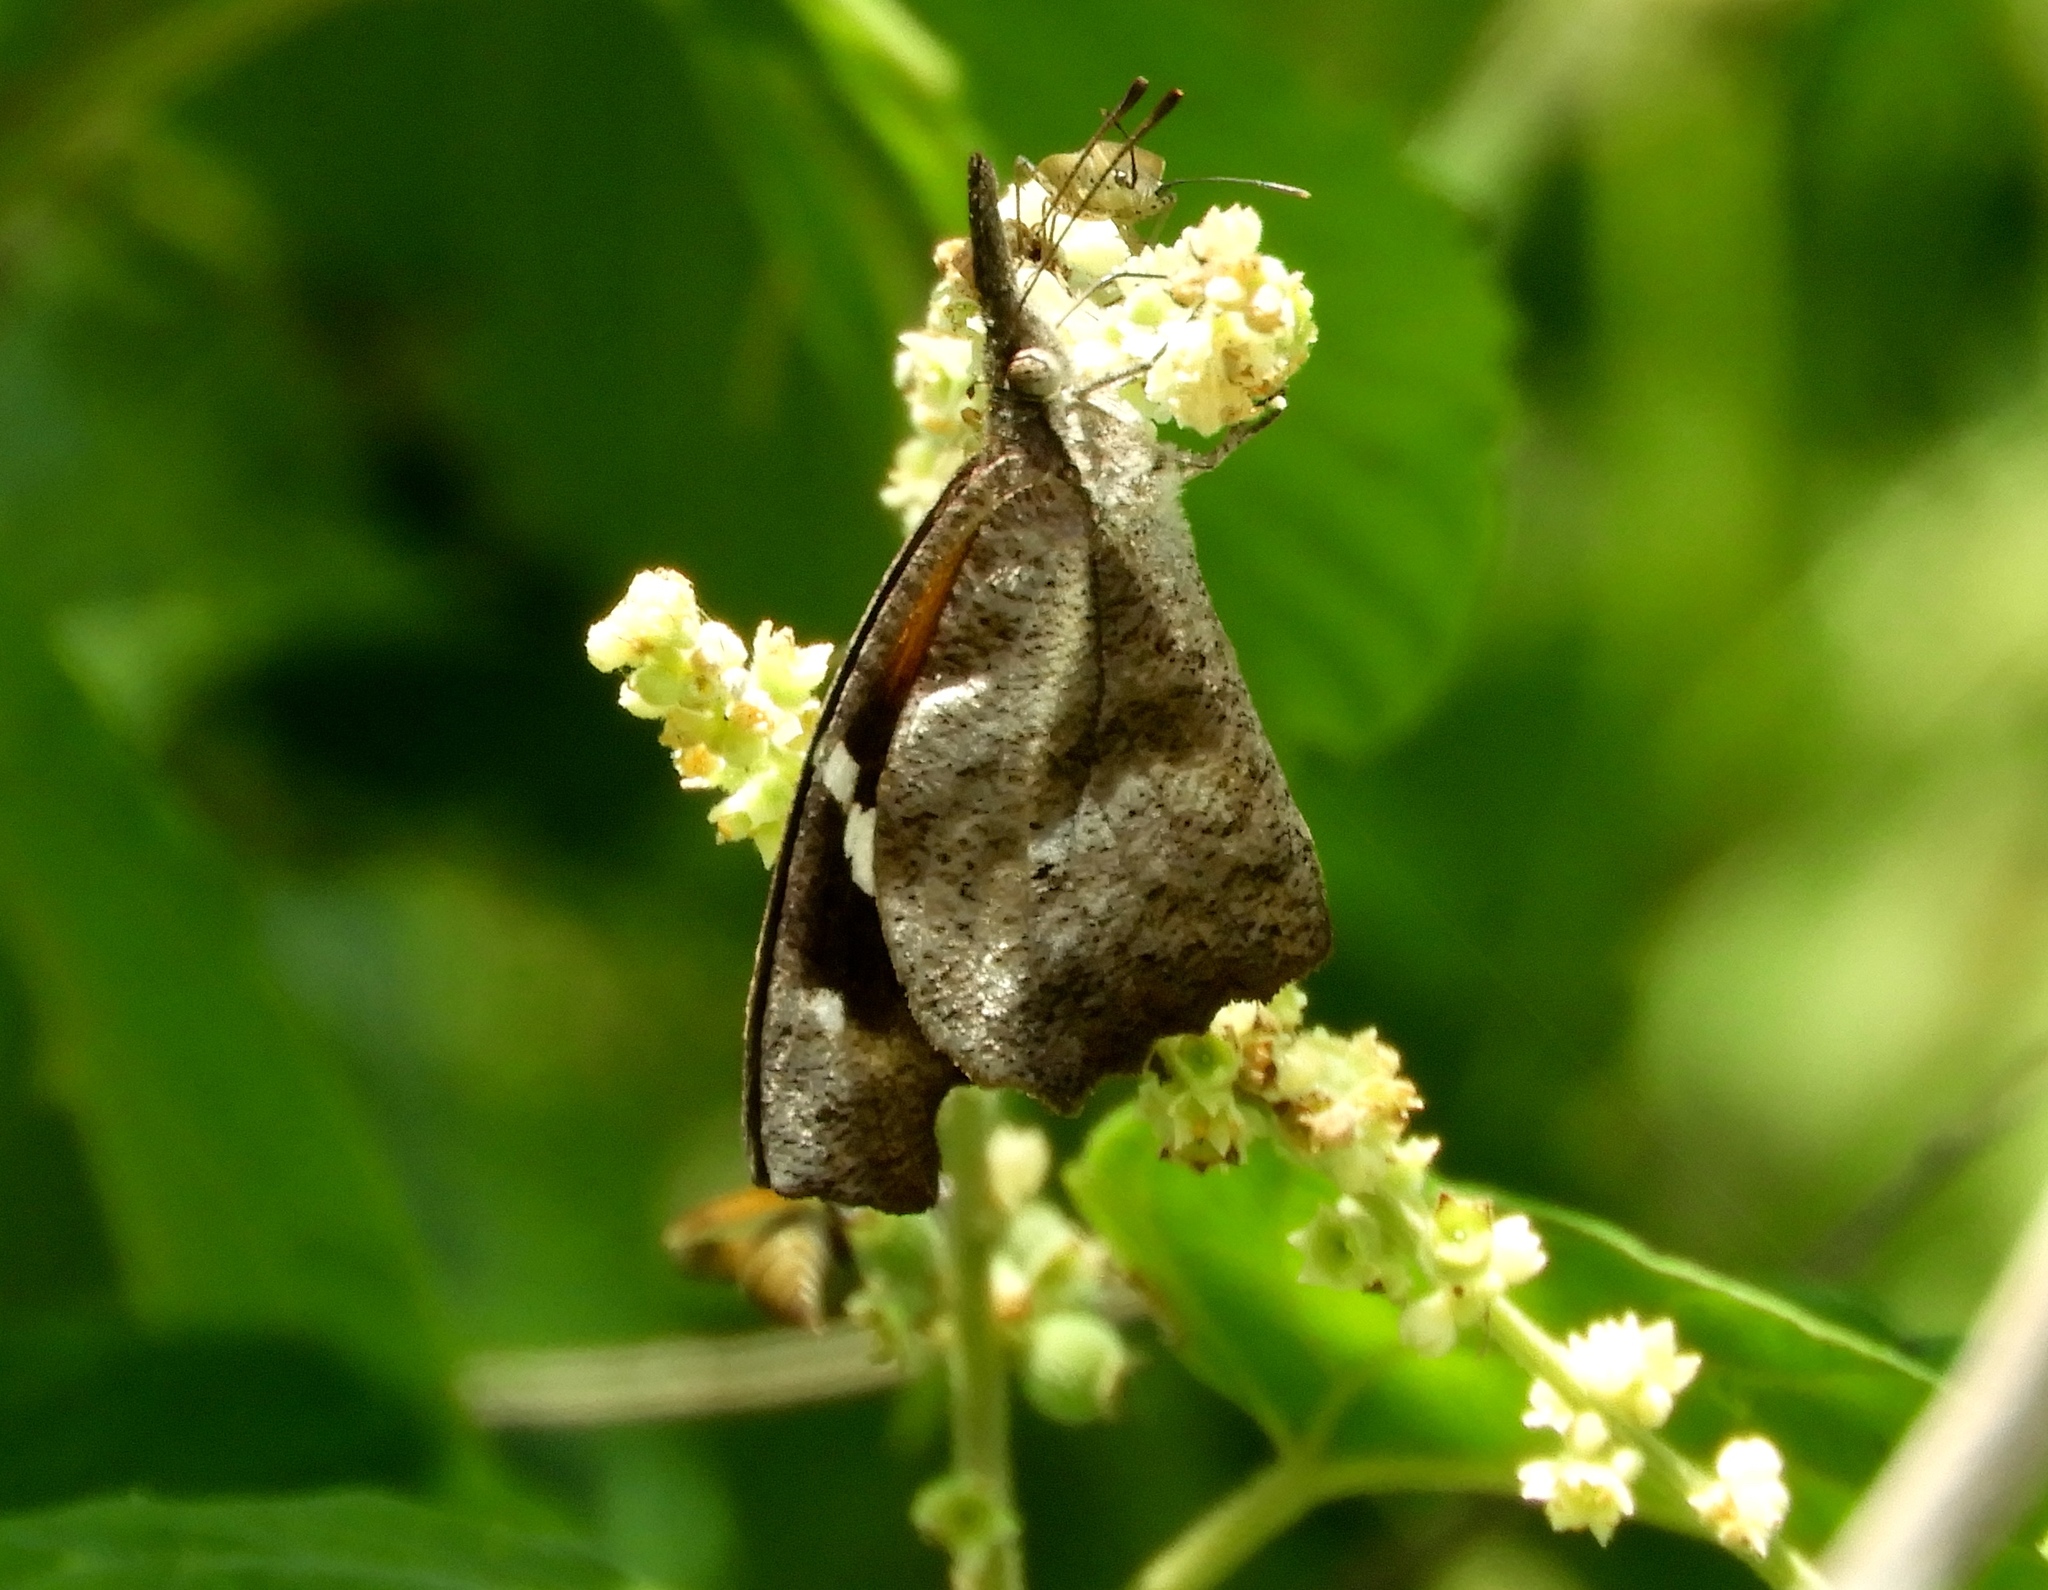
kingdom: Animalia
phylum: Arthropoda
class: Insecta
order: Lepidoptera
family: Nymphalidae
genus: Libytheana
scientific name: Libytheana carinenta
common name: American snout
